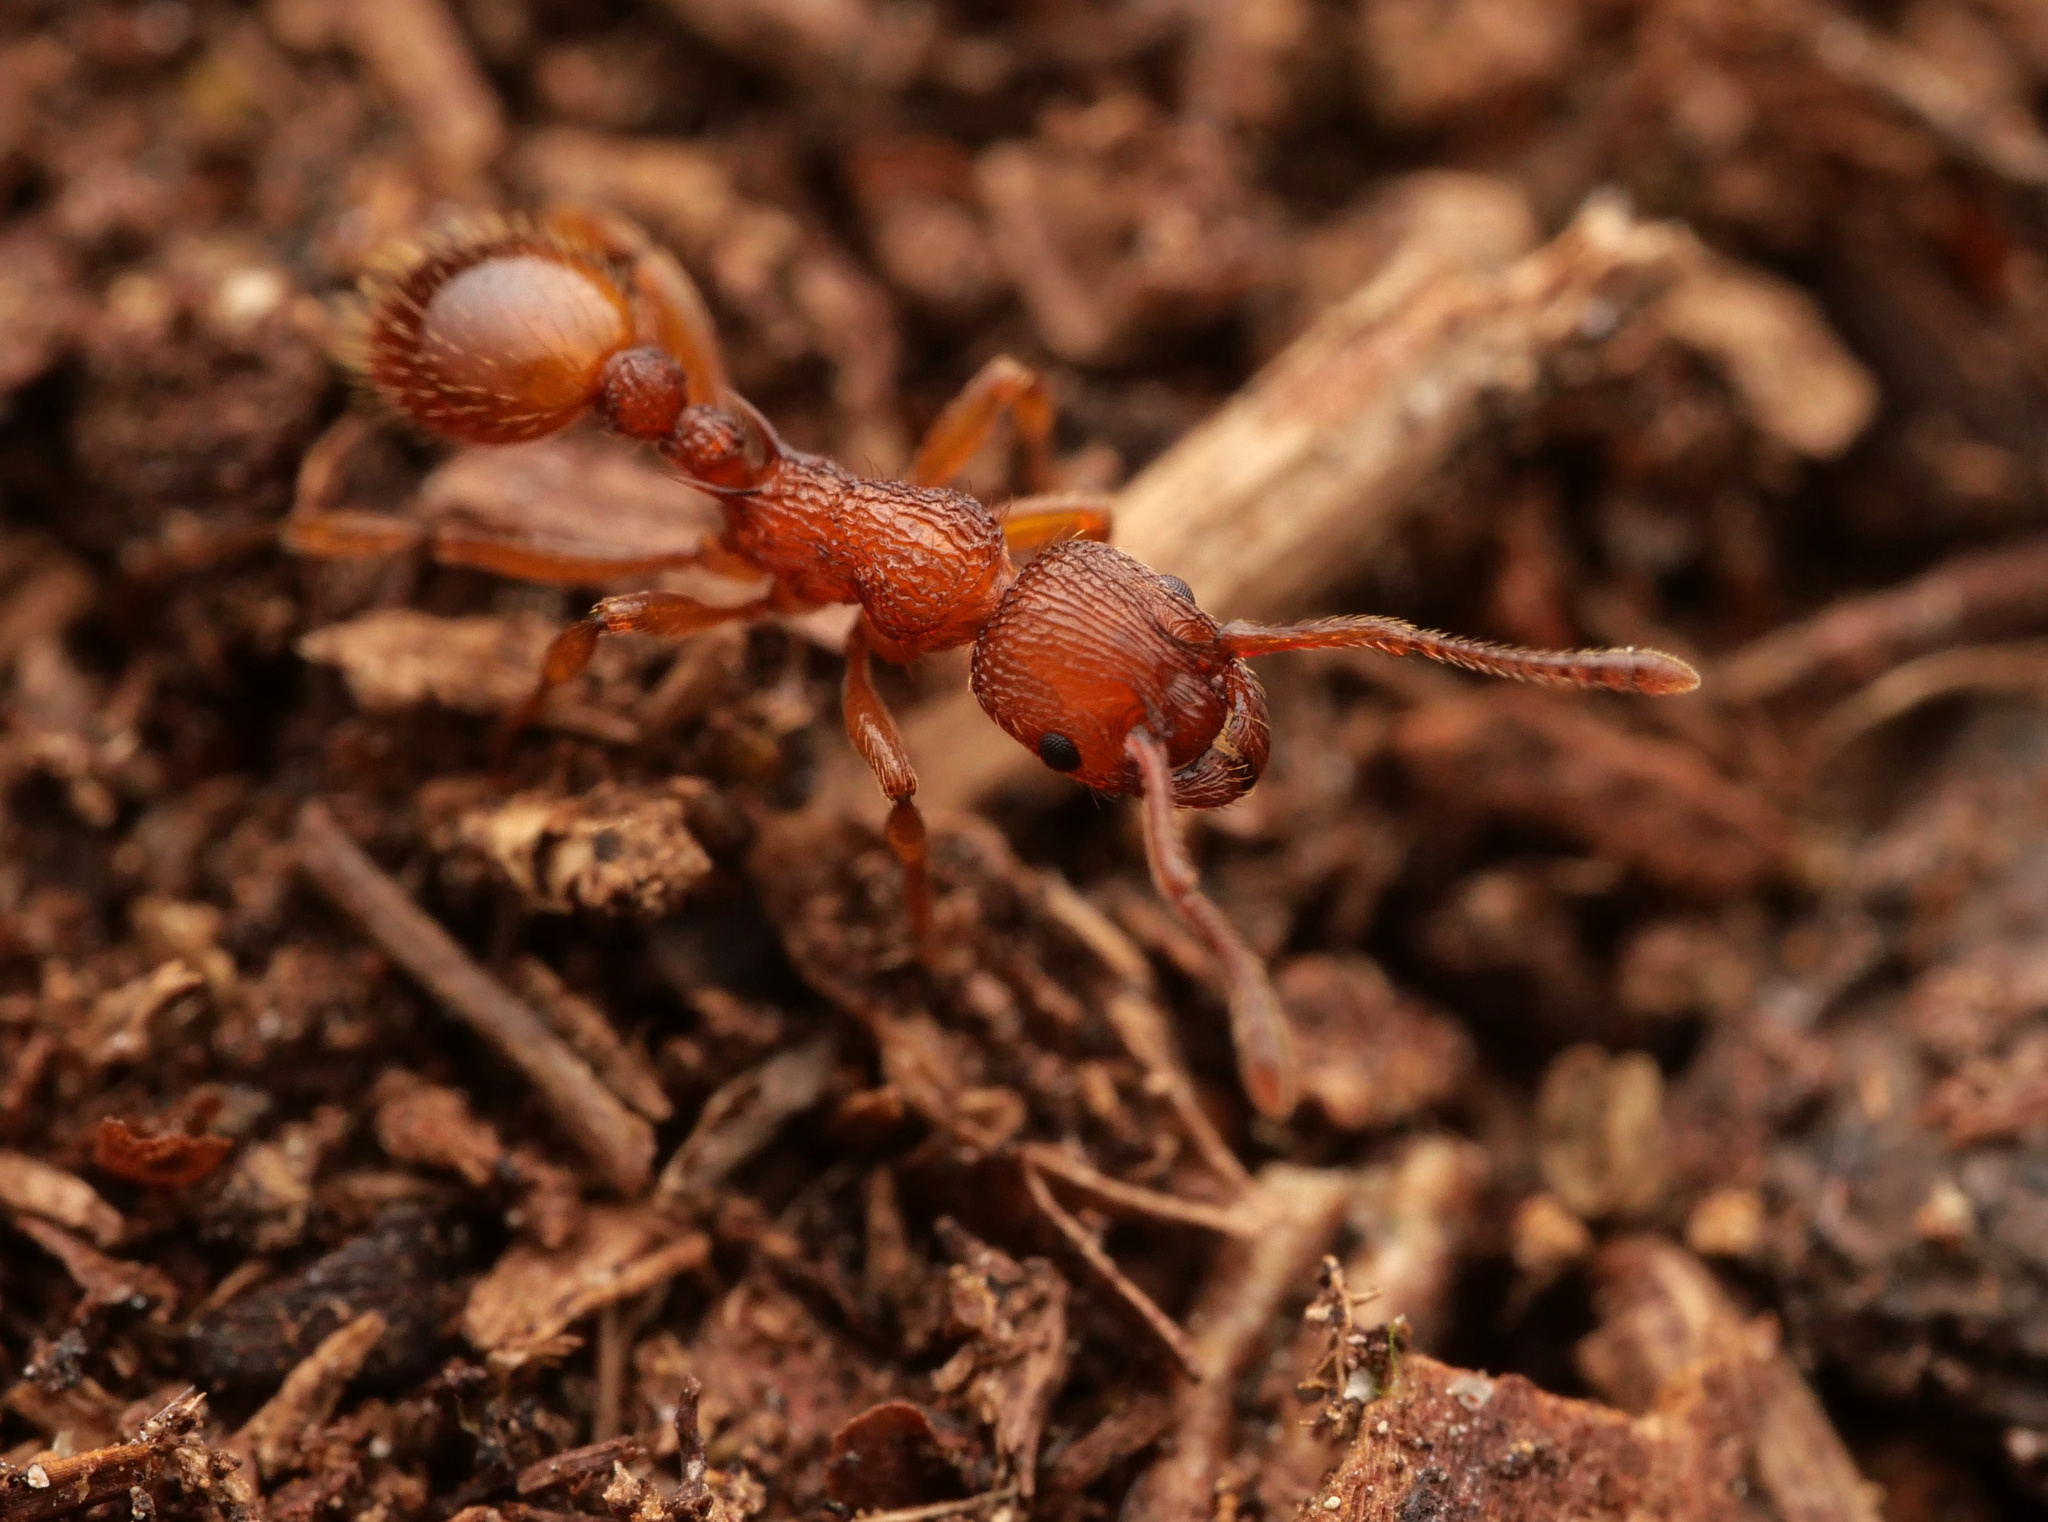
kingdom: Animalia
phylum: Arthropoda
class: Insecta
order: Hymenoptera
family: Formicidae
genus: Myrmica
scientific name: Myrmica sabuleti
